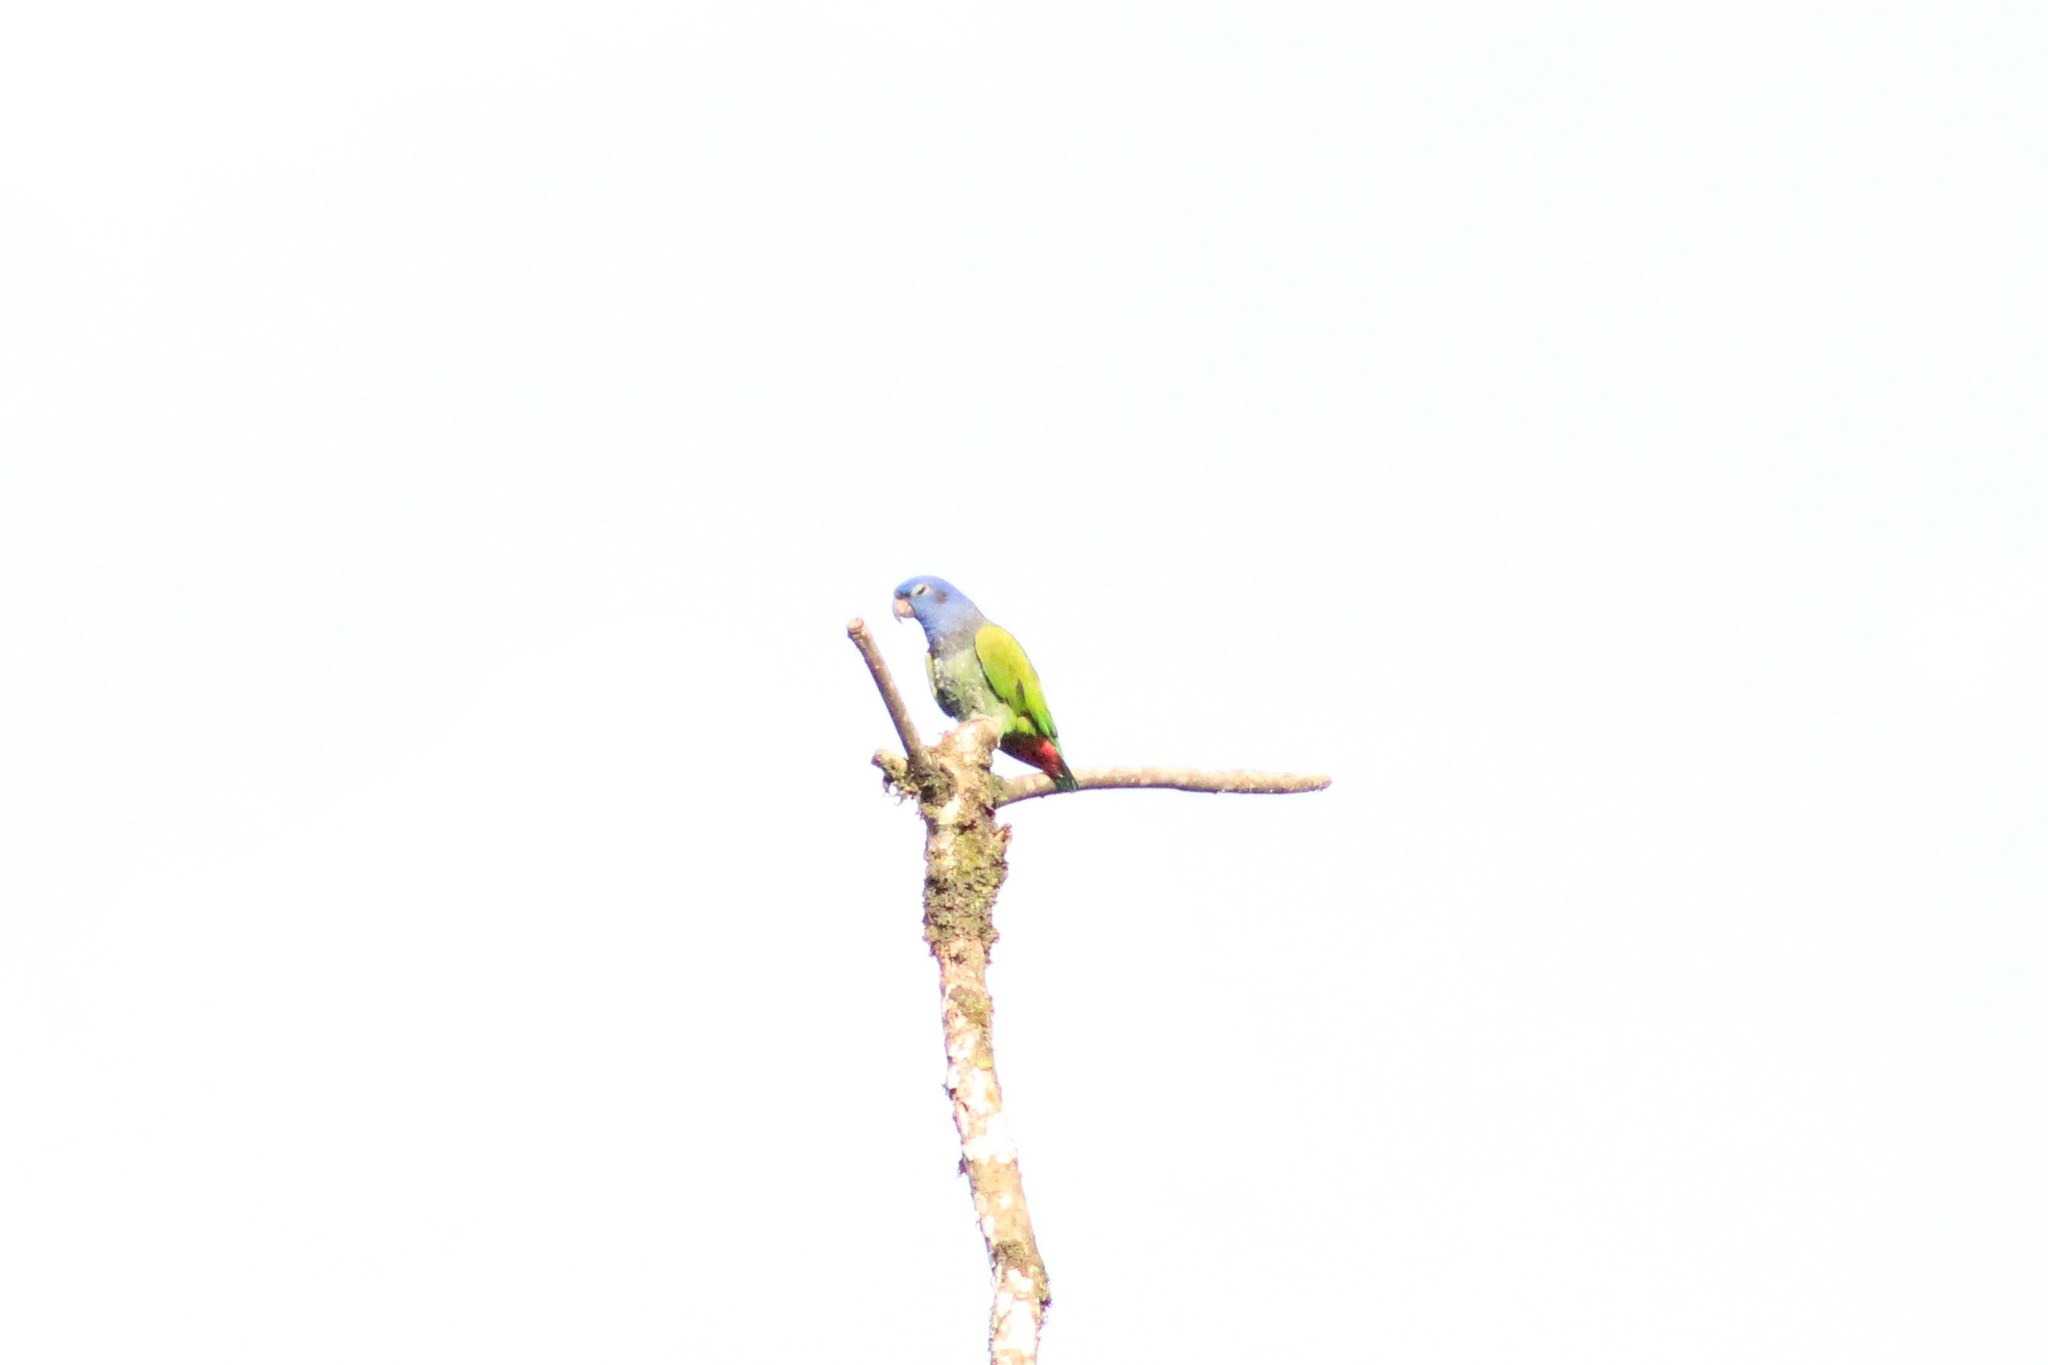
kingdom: Animalia
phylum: Chordata
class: Aves
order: Psittaciformes
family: Psittacidae
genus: Pionus
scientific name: Pionus menstruus
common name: Blue-headed parrot
